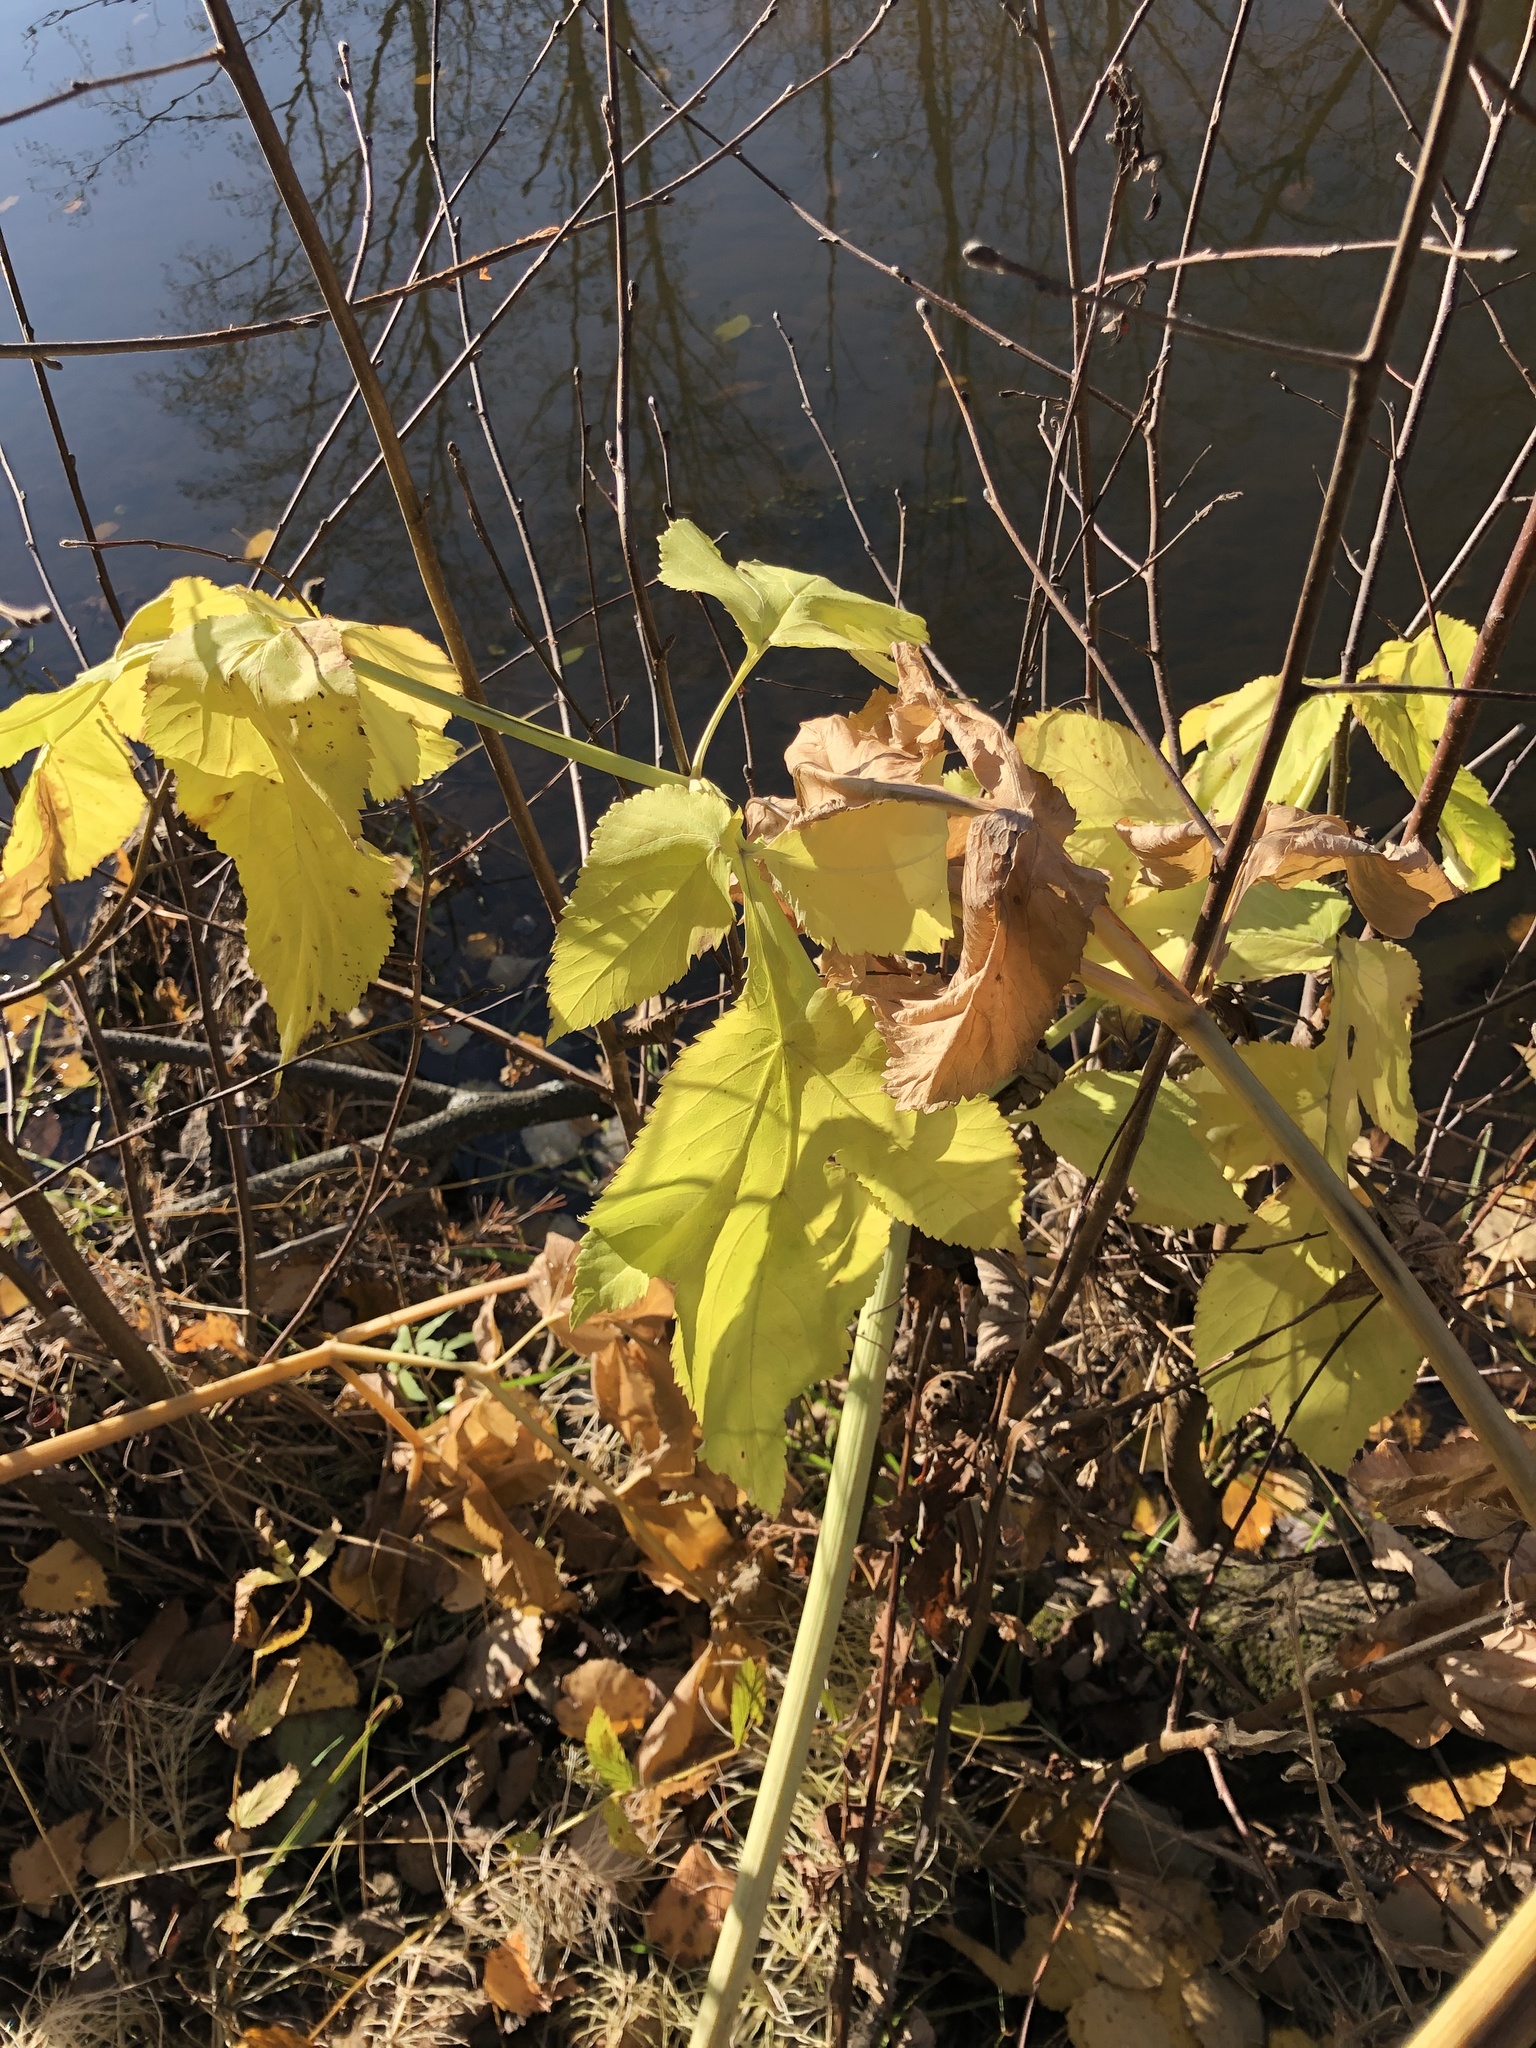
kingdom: Plantae
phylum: Tracheophyta
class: Magnoliopsida
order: Apiales
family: Apiaceae
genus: Angelica
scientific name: Angelica archangelica
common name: Garden angelica
